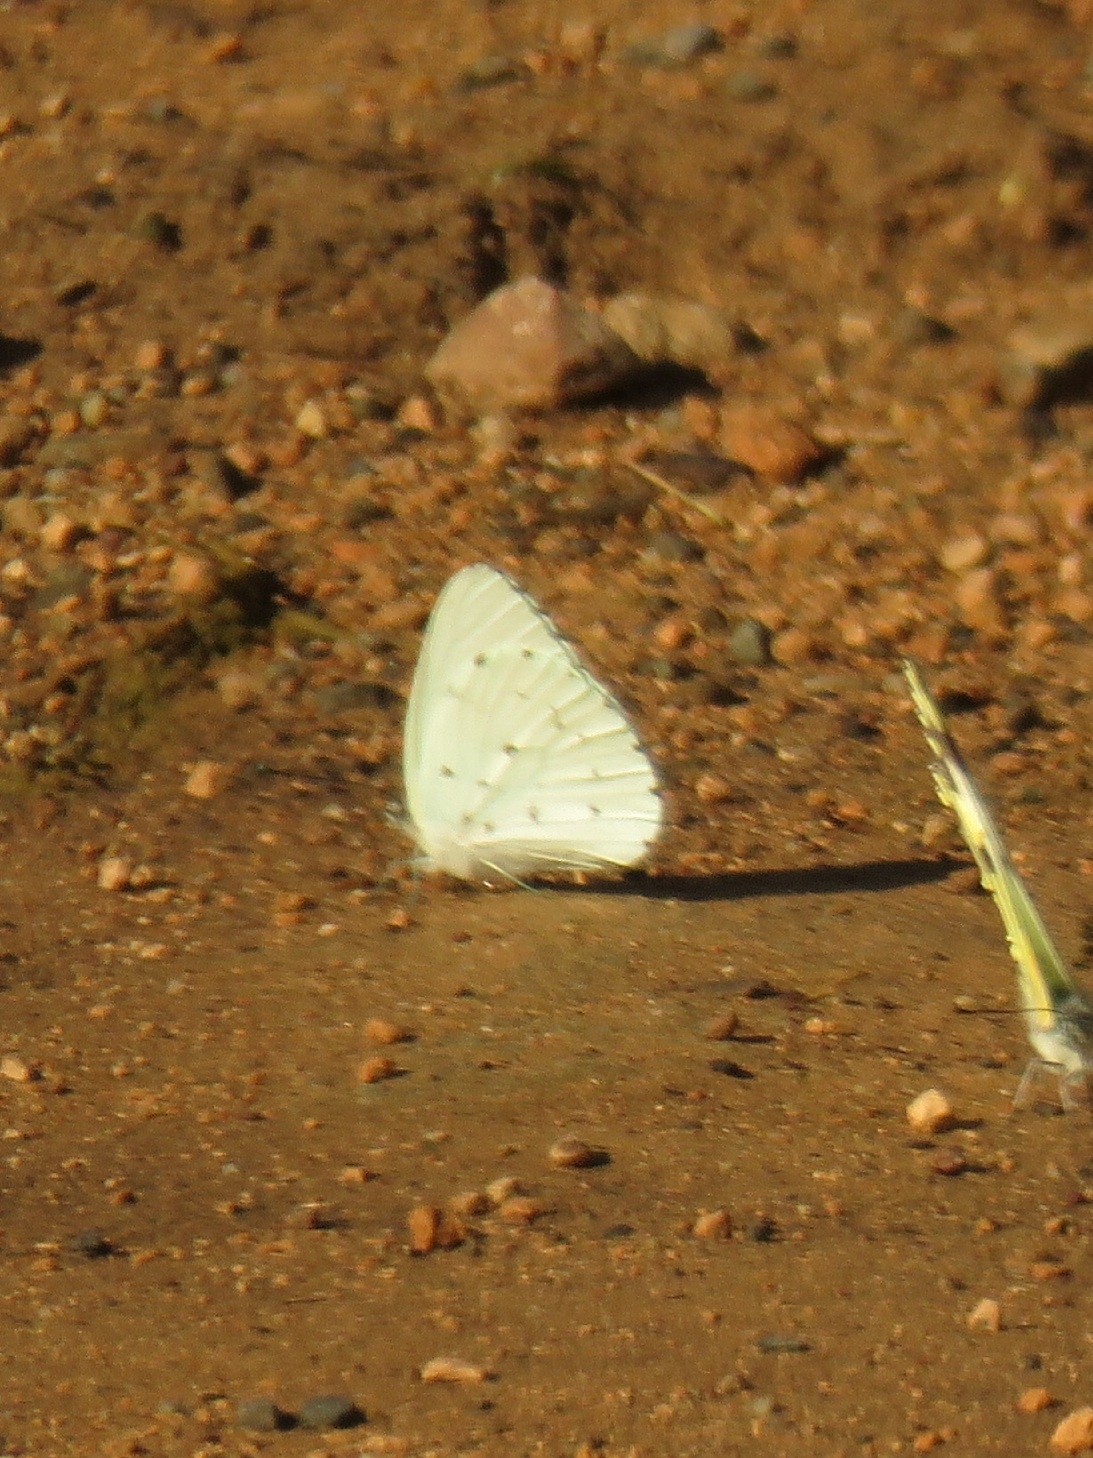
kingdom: Animalia
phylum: Arthropoda
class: Insecta
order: Lepidoptera
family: Pieridae
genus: Dixeia
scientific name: Dixeia charina
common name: African small white
